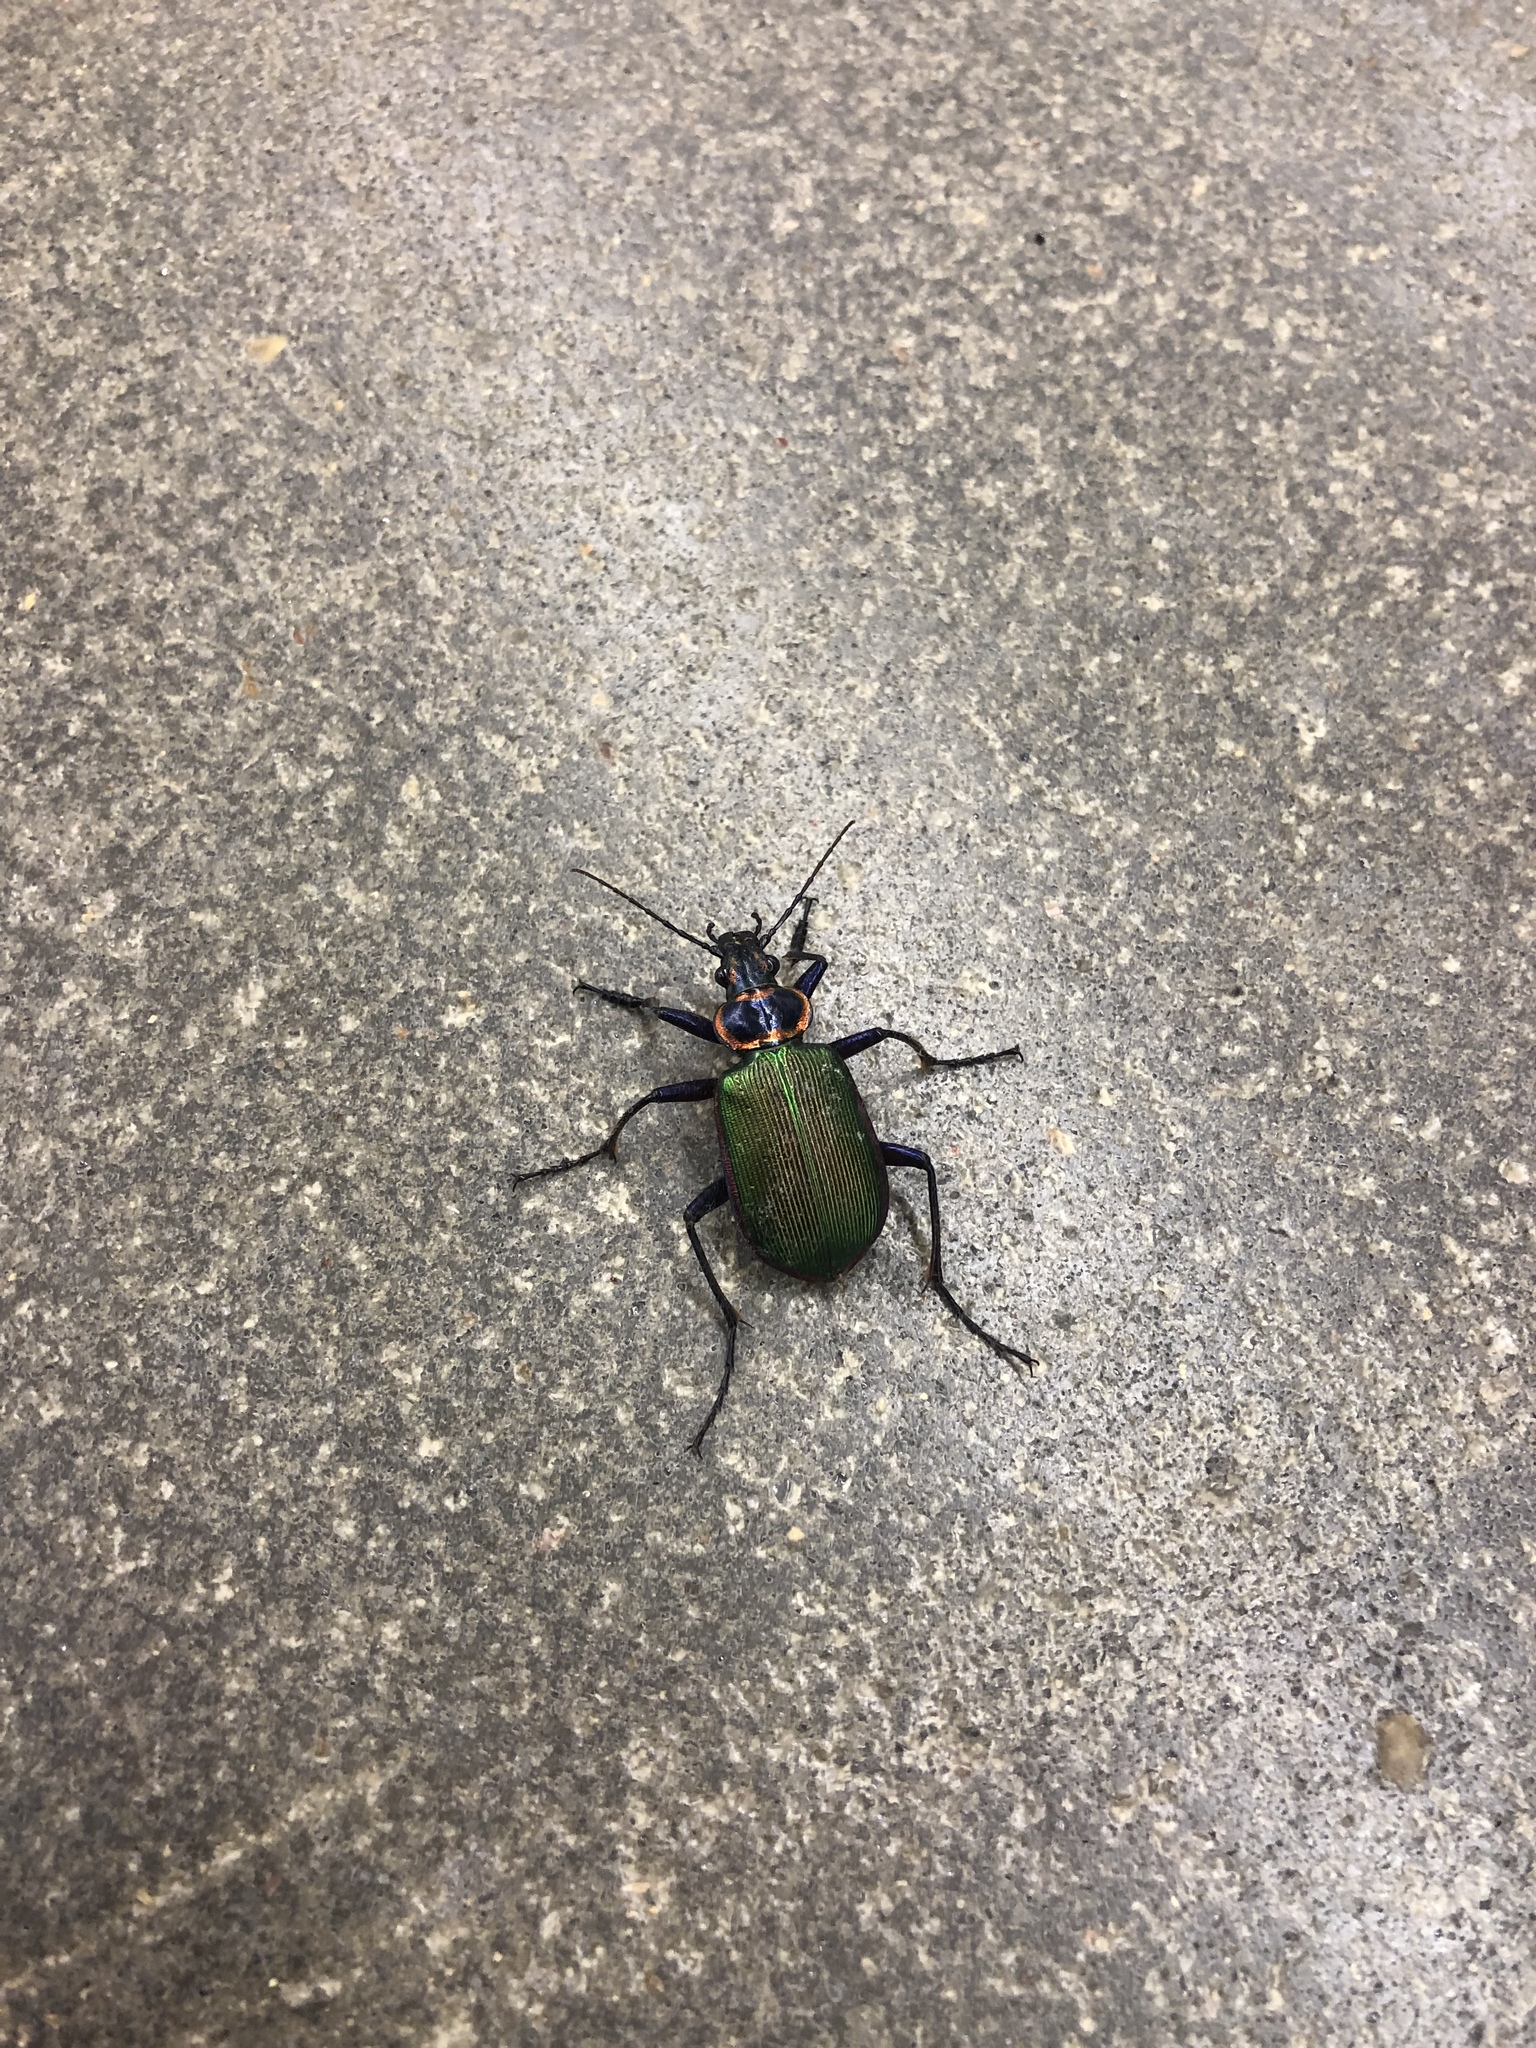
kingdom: Animalia
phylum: Arthropoda
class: Insecta
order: Coleoptera
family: Carabidae
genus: Calosoma
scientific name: Calosoma scrutator
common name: Fiery searcher beetle
